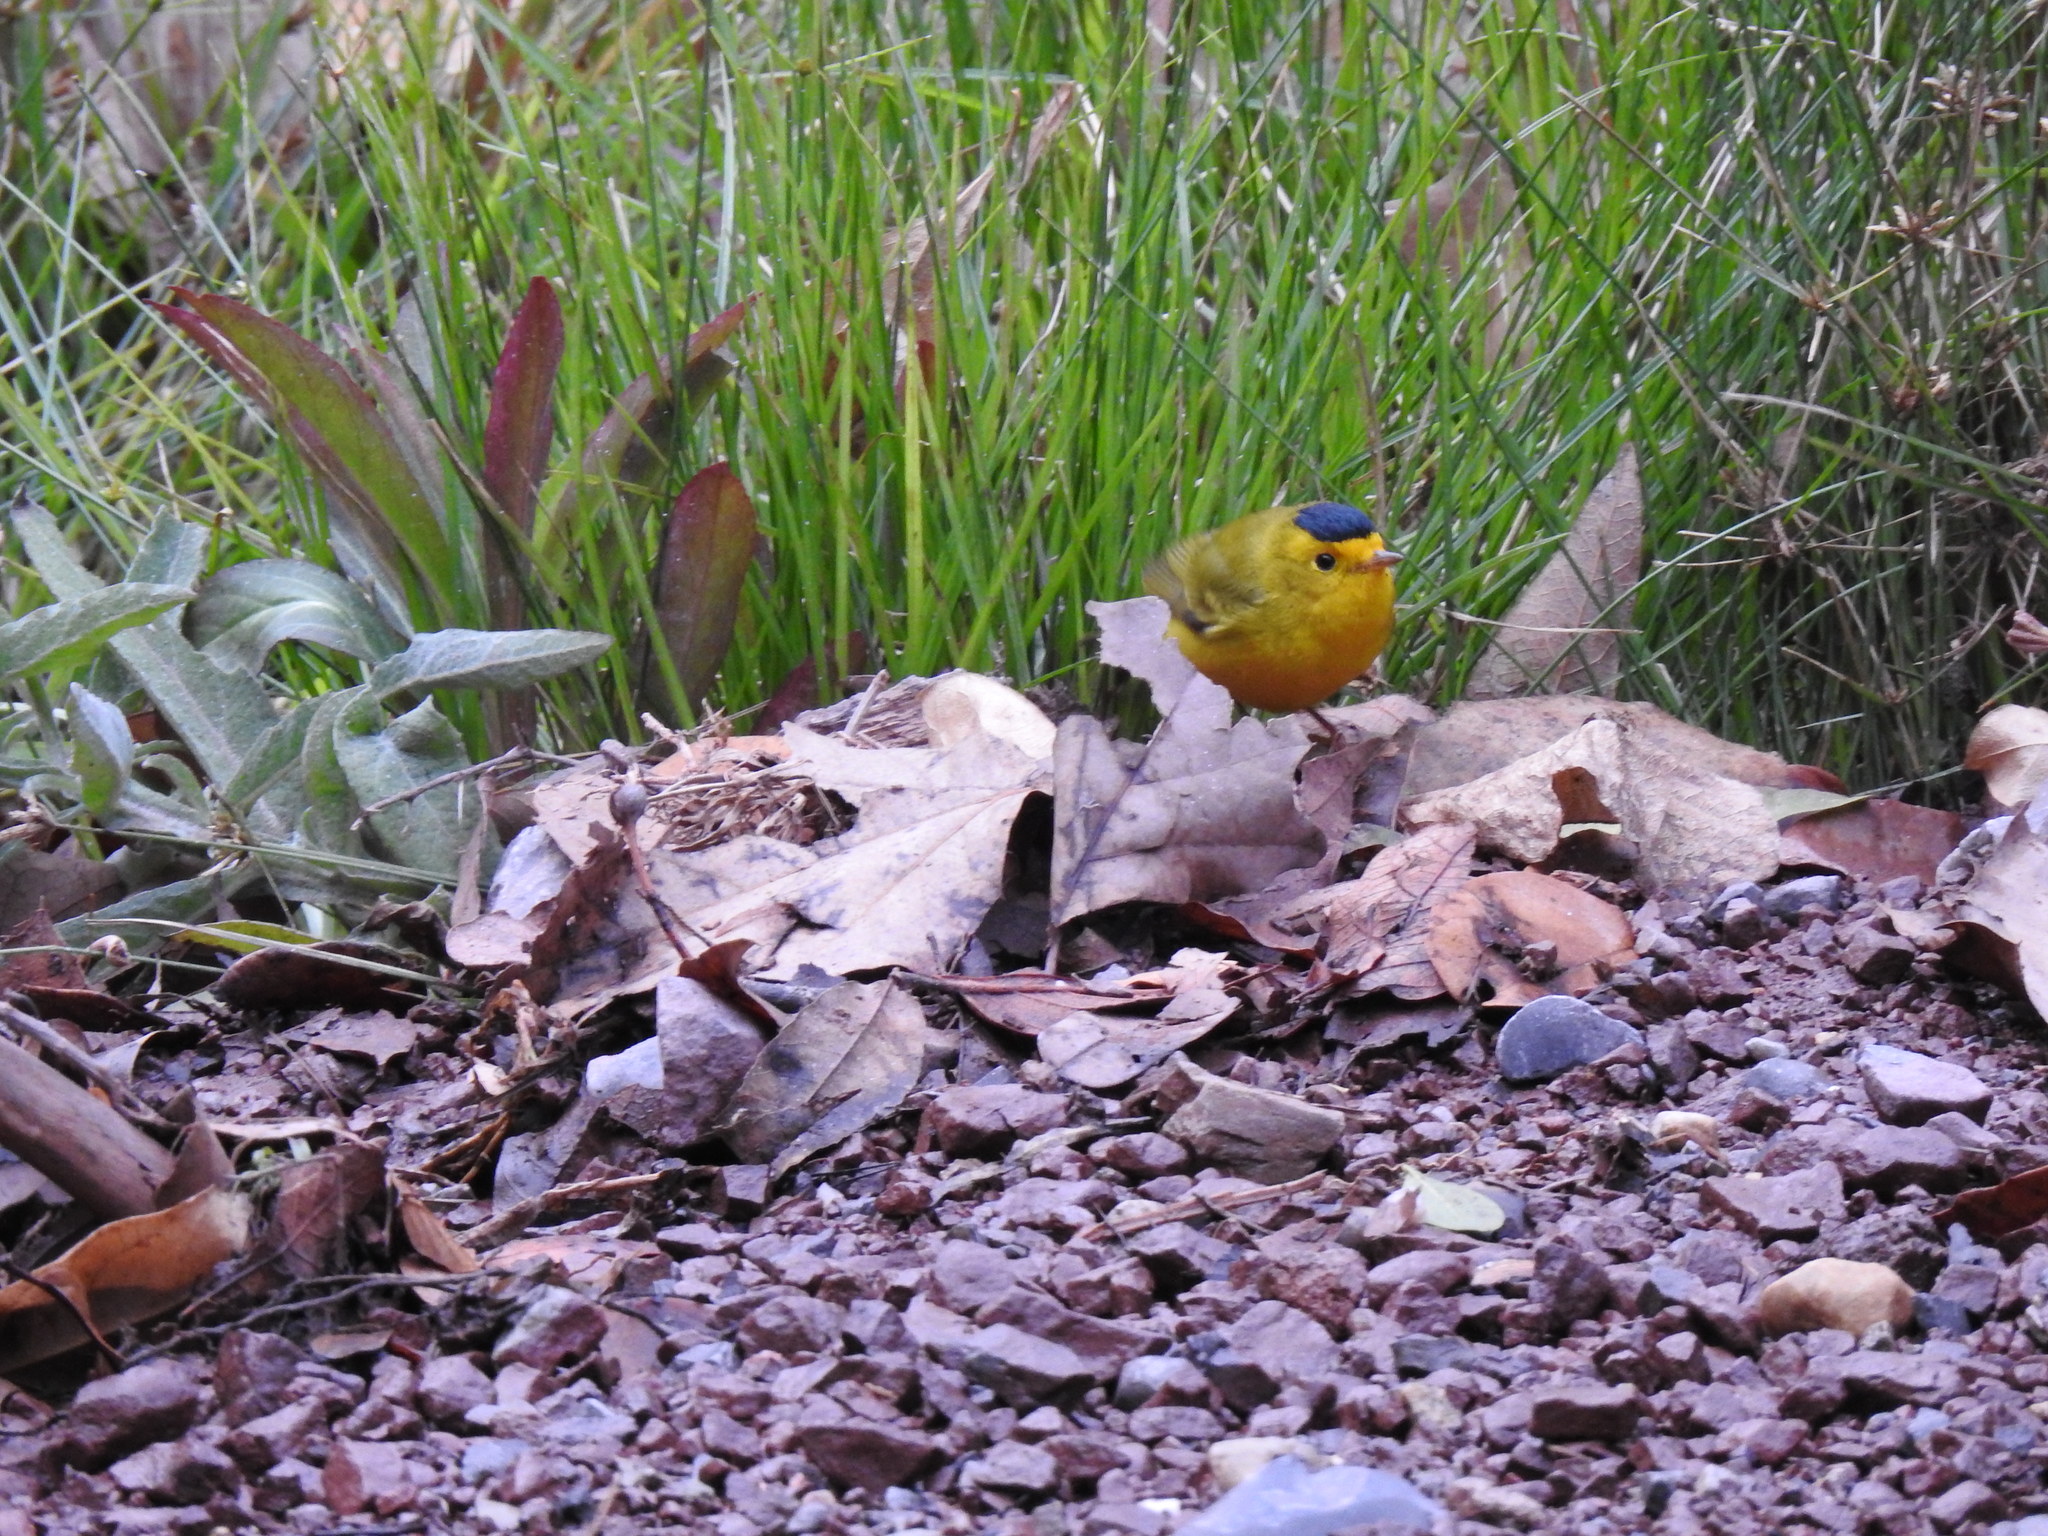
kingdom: Animalia
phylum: Chordata
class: Aves
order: Passeriformes
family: Parulidae
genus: Cardellina
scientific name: Cardellina pusilla
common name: Wilson's warbler
